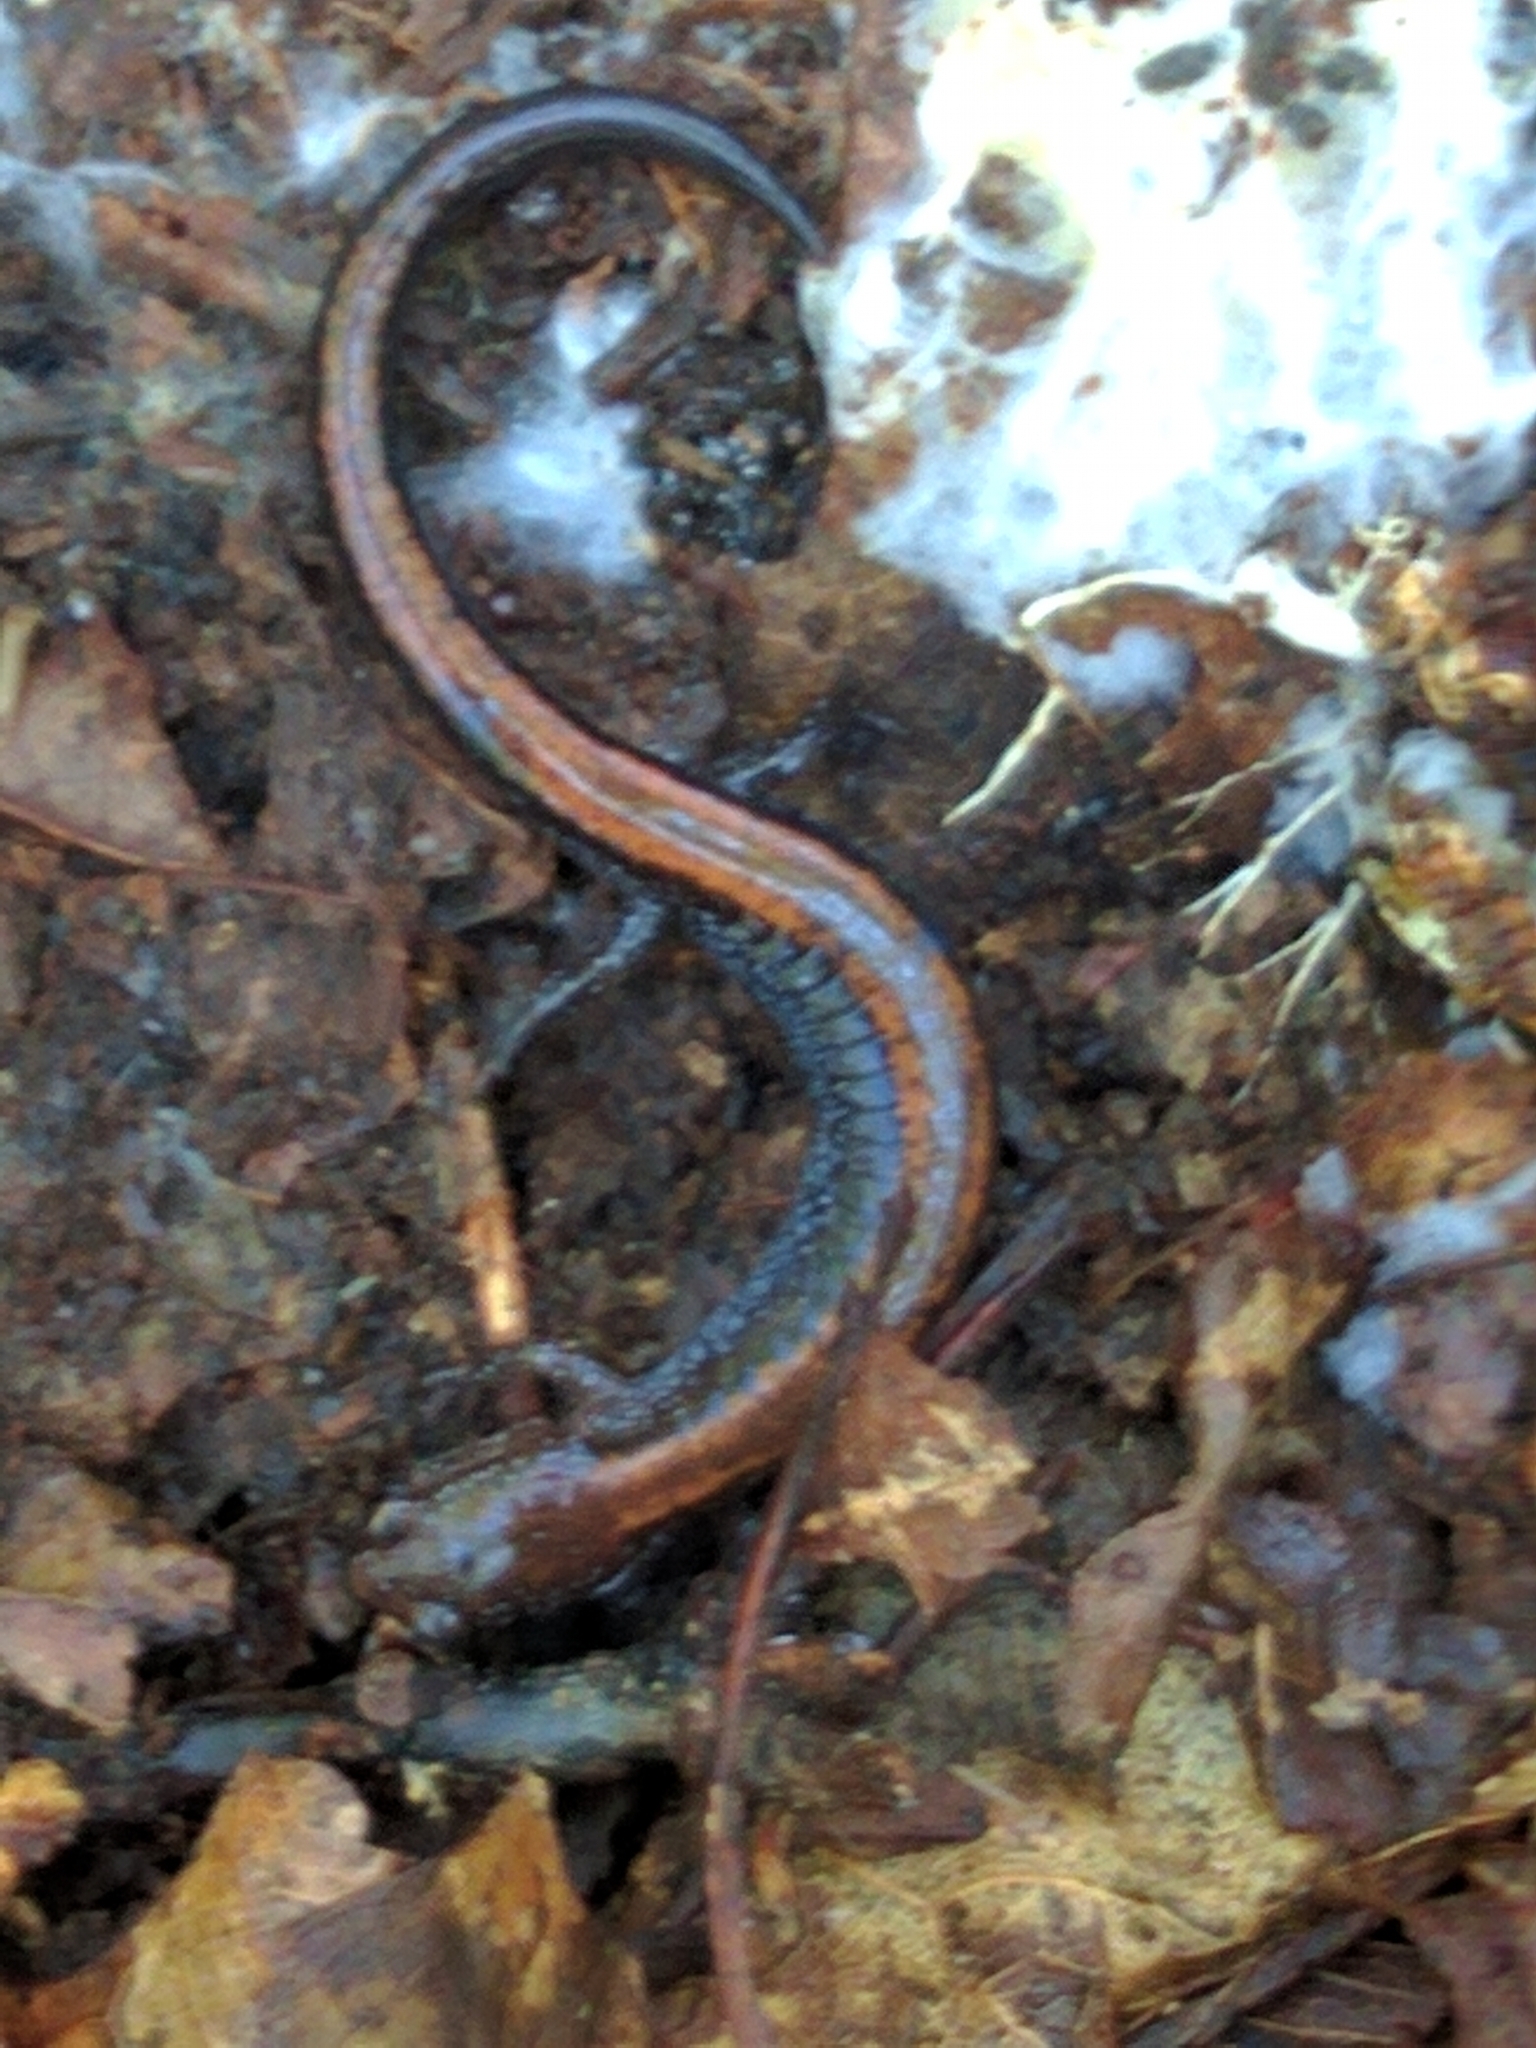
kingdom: Animalia
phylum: Chordata
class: Amphibia
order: Caudata
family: Plethodontidae
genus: Plethodon
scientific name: Plethodon cinereus
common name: Redback salamander
